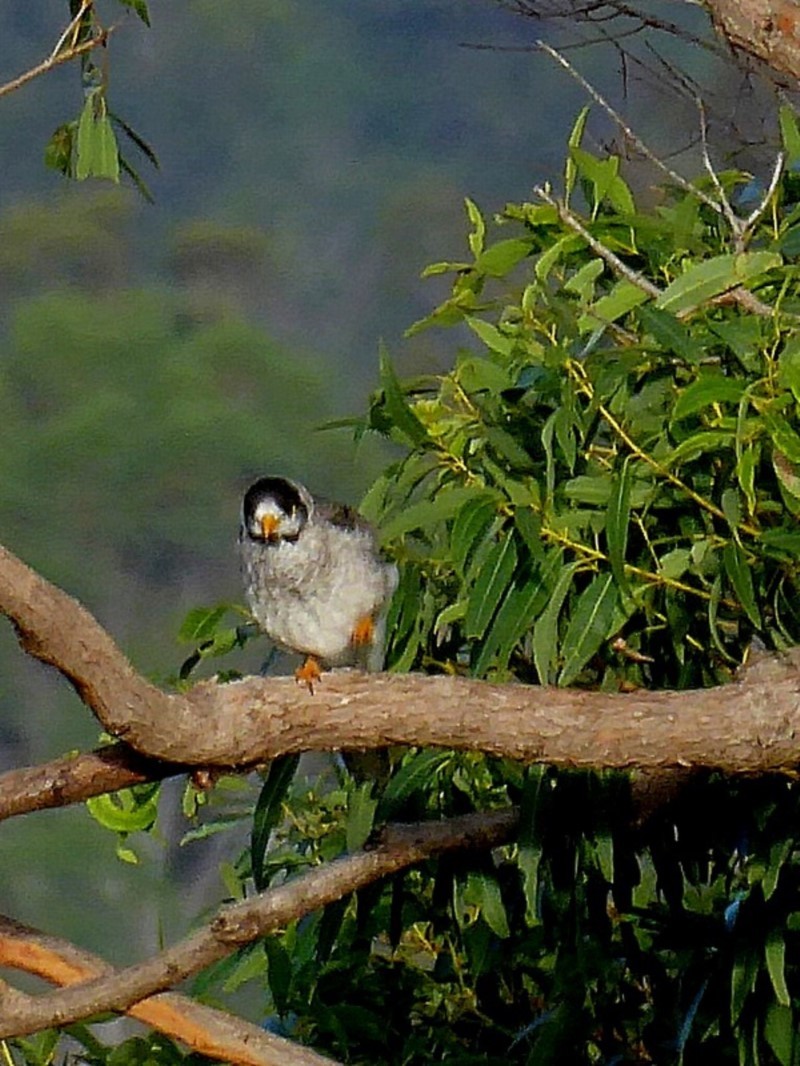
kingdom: Animalia
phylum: Chordata
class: Aves
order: Passeriformes
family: Meliphagidae
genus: Manorina
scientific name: Manorina melanocephala
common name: Noisy miner
